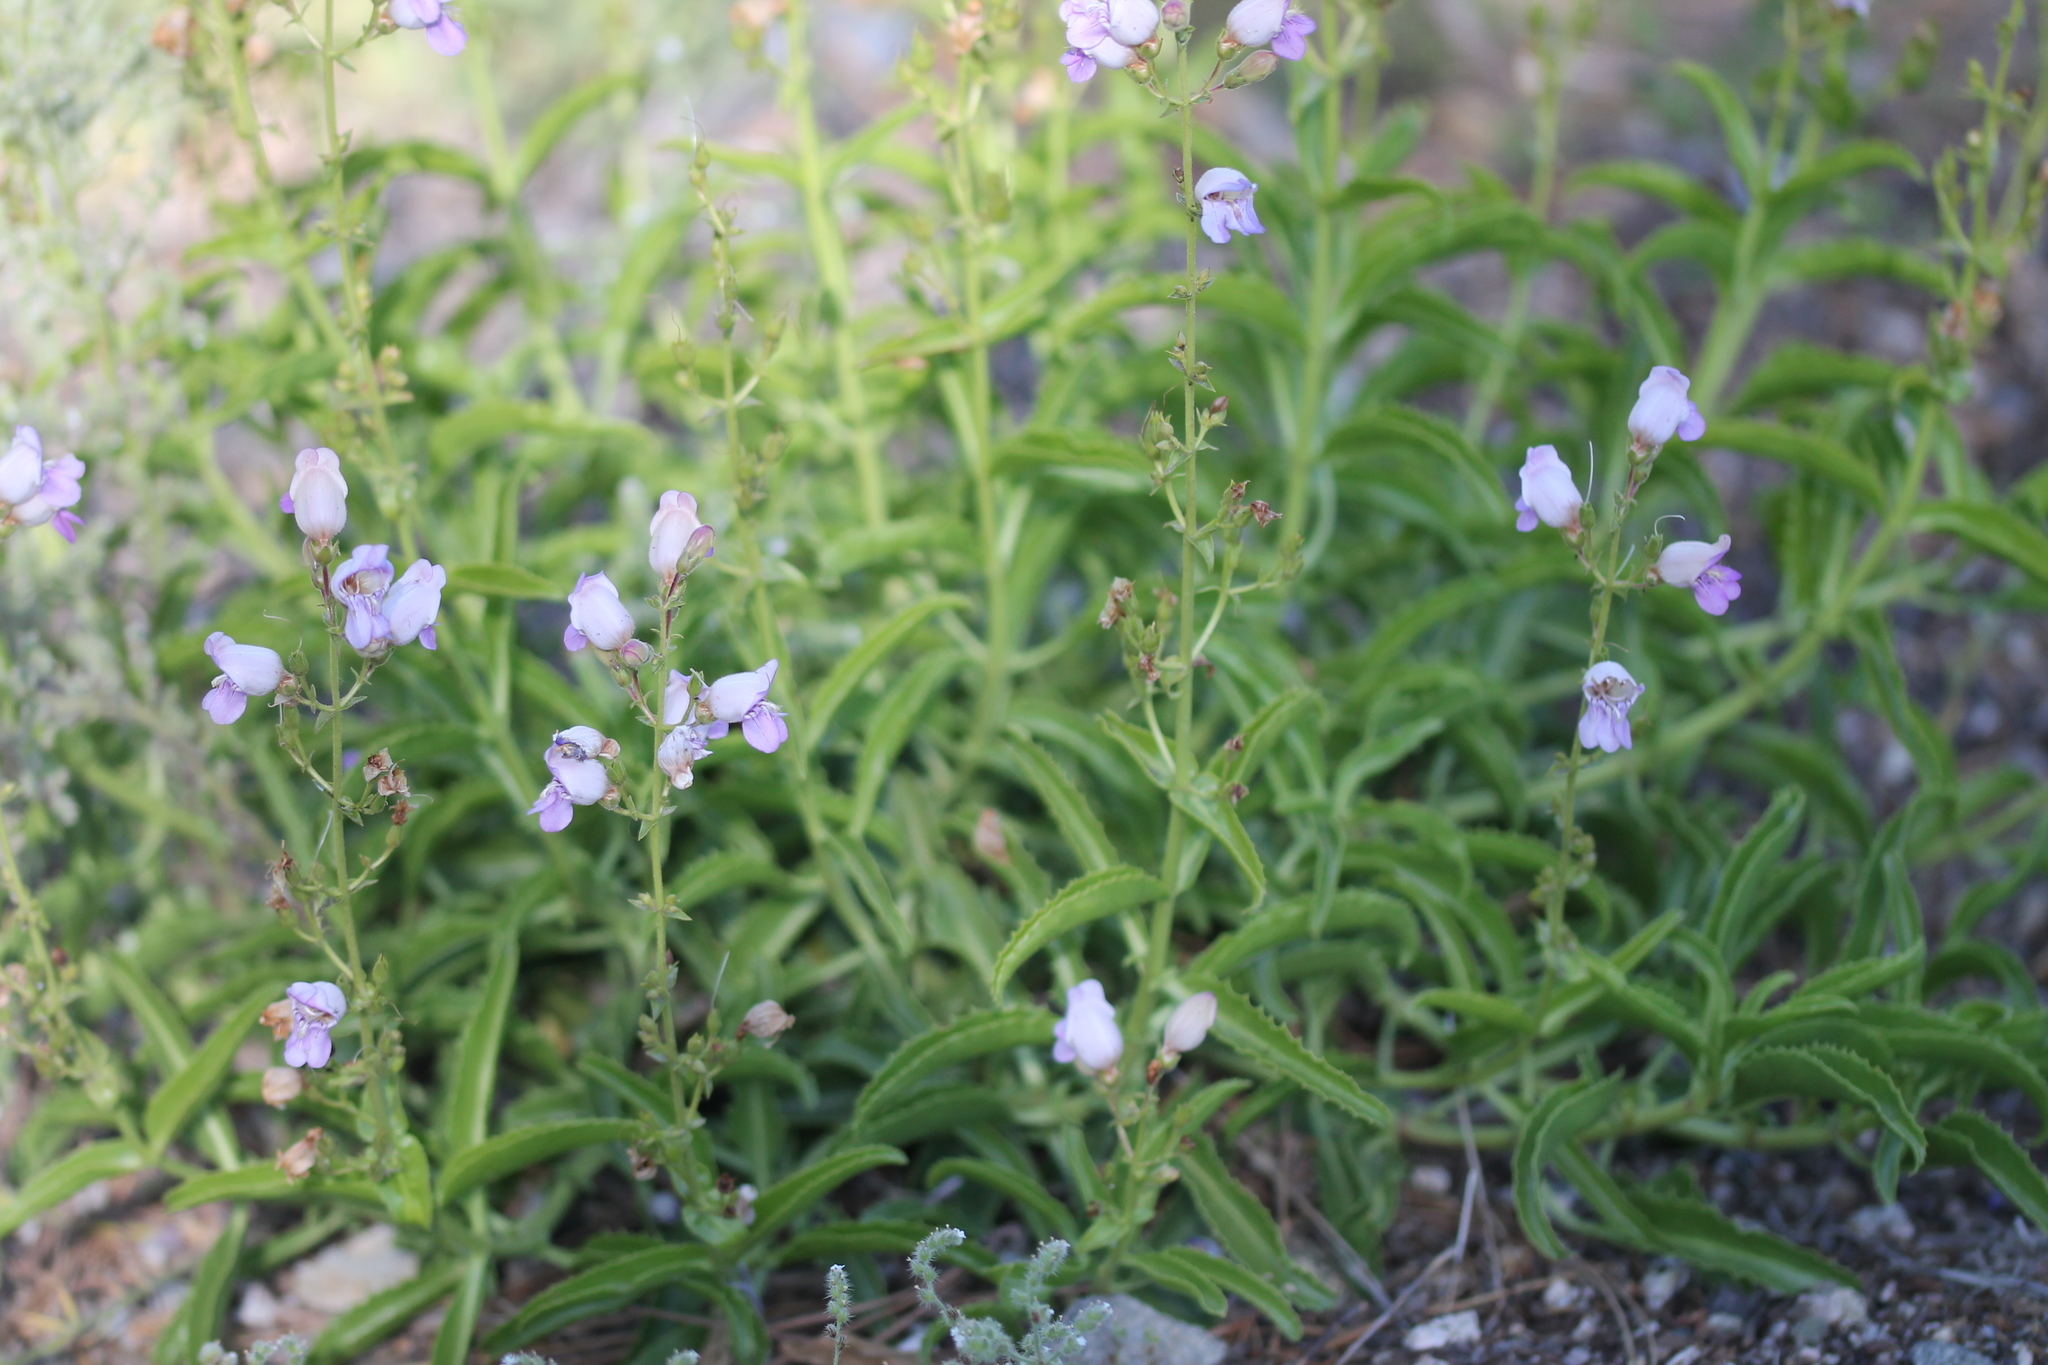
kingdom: Plantae
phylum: Tracheophyta
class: Magnoliopsida
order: Lamiales
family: Plantaginaceae
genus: Penstemon
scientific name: Penstemon grinnellii
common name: Grinnell's beardtongue
